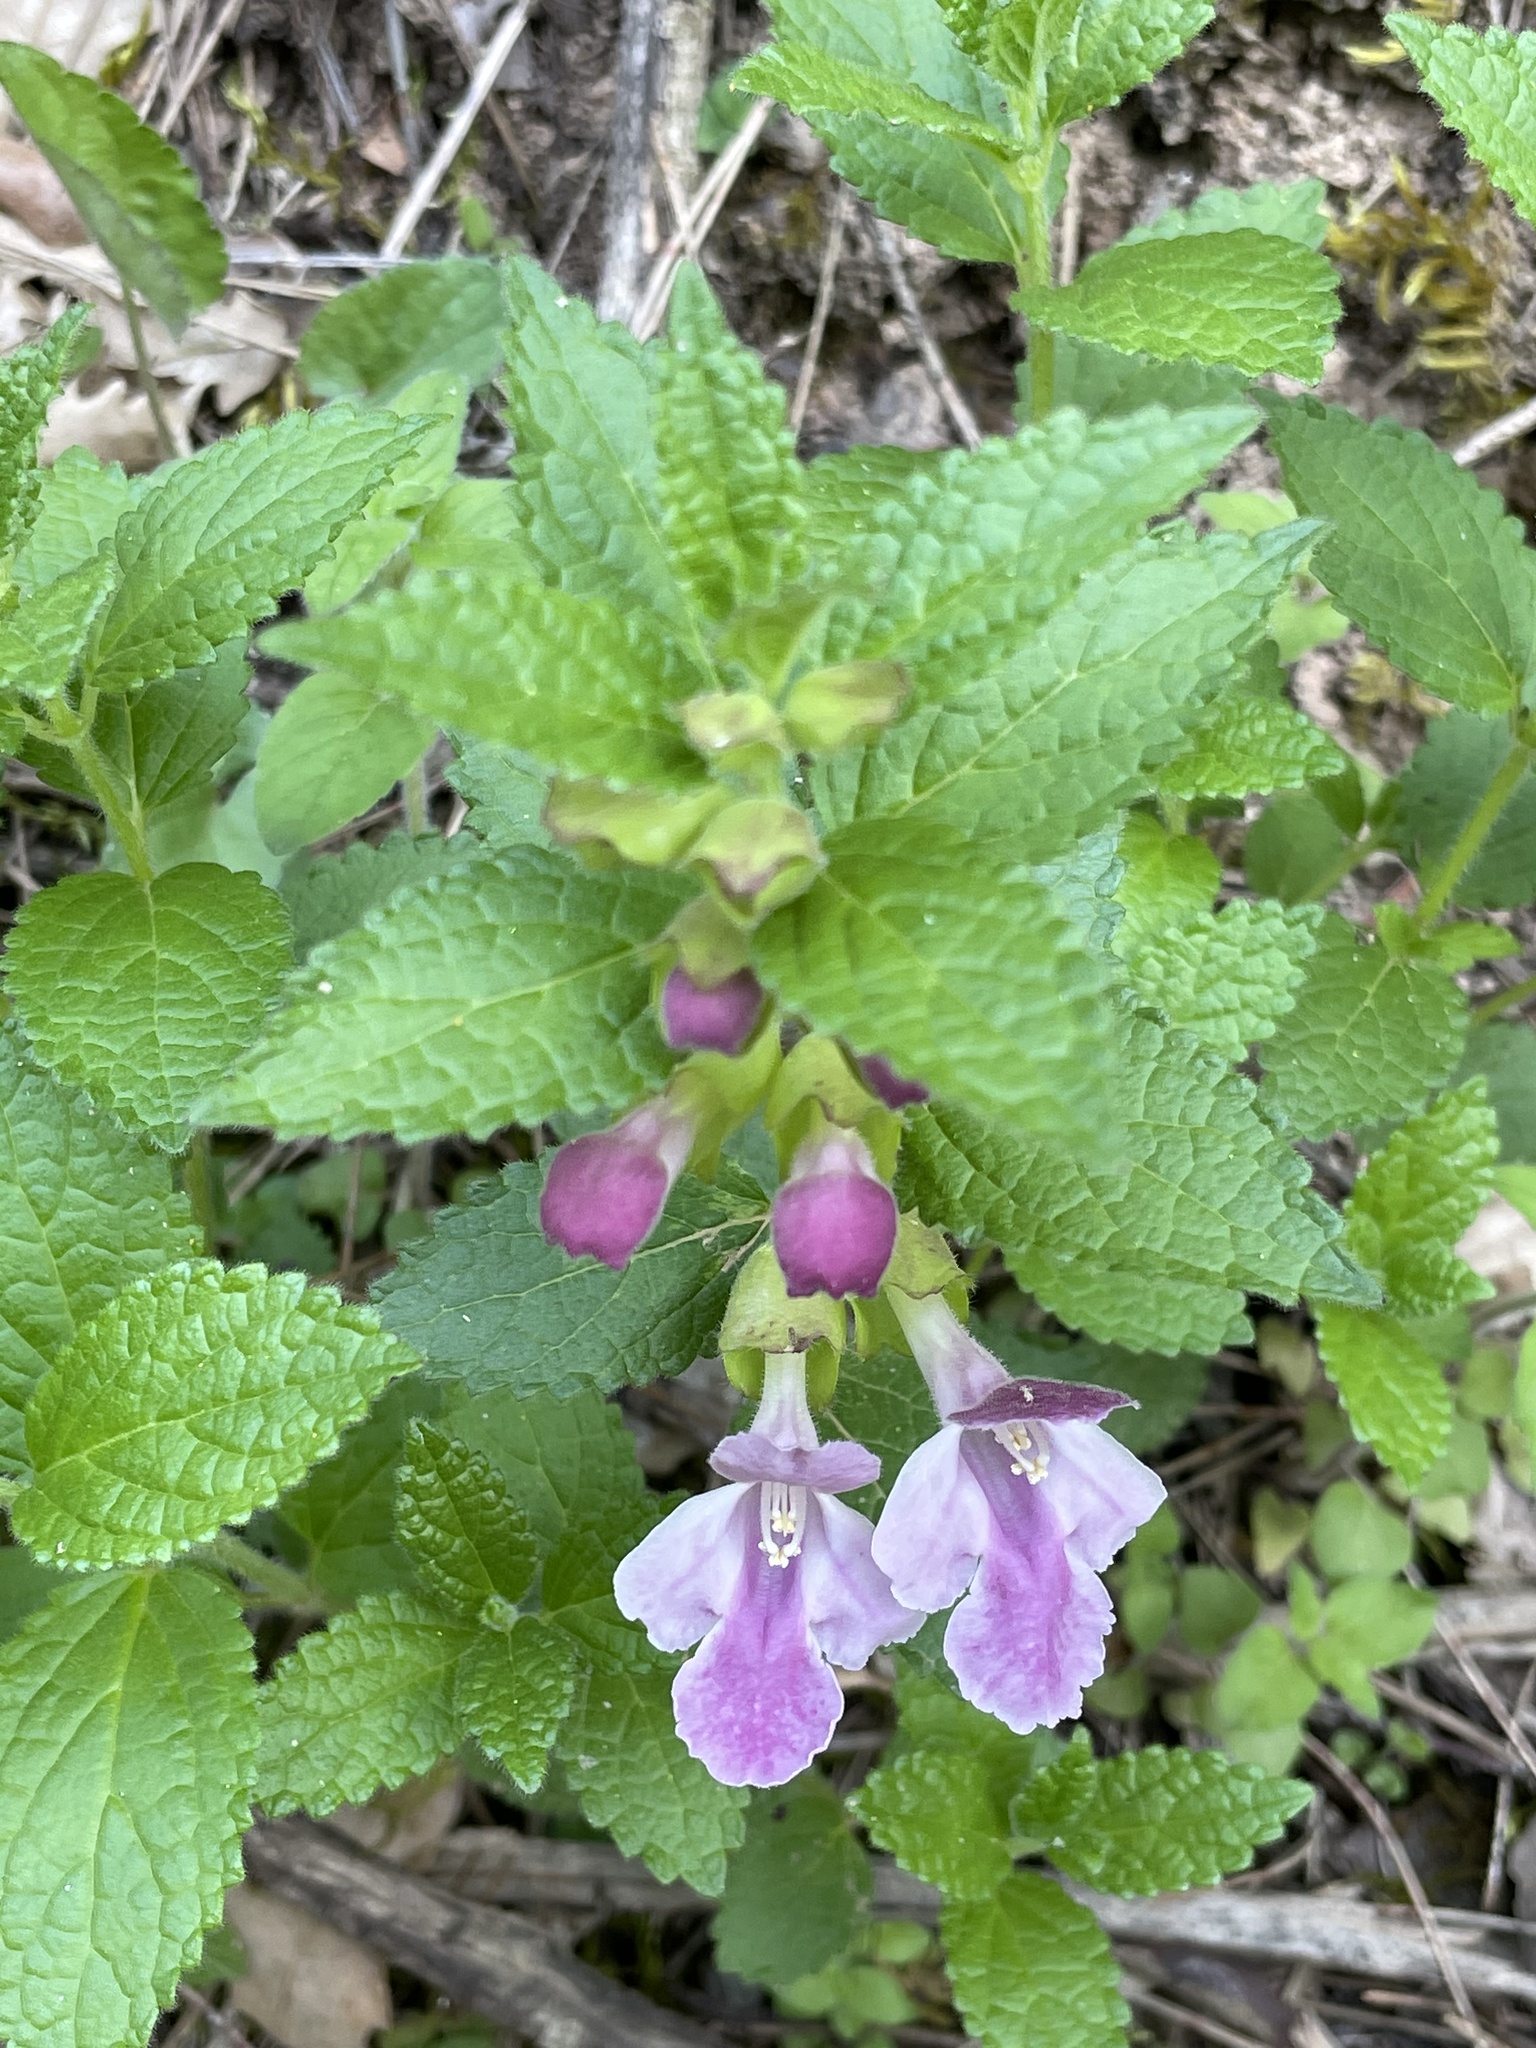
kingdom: Plantae
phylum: Tracheophyta
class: Magnoliopsida
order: Lamiales
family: Lamiaceae
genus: Melittis
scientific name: Melittis melissophyllum
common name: Bastard balm
